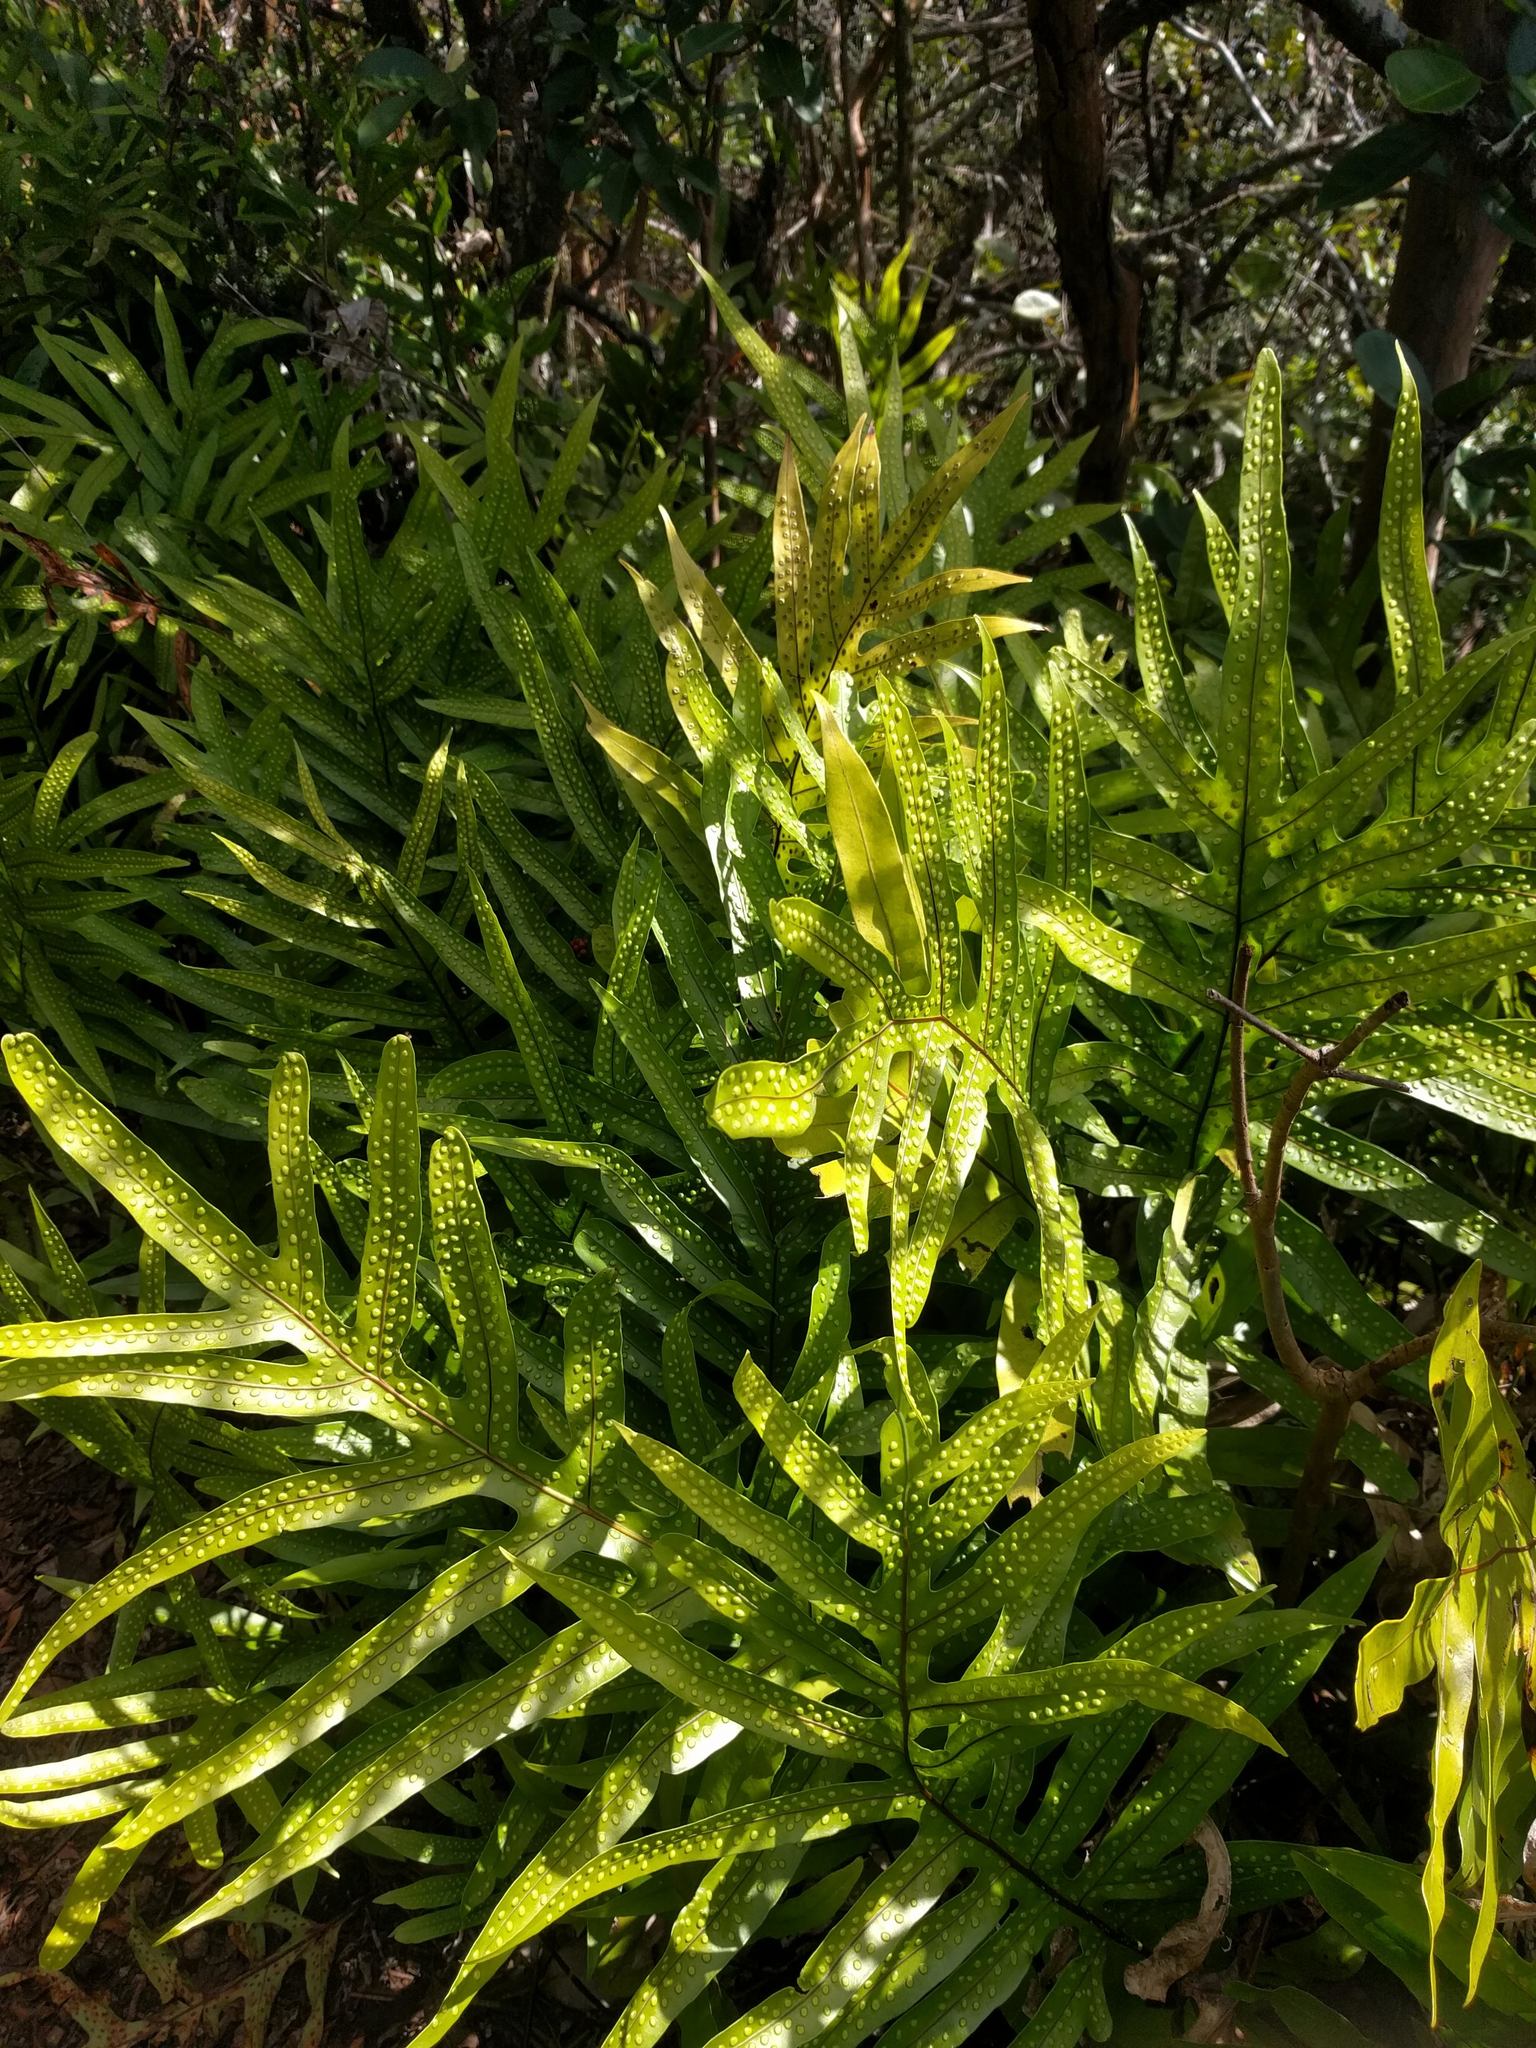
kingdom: Plantae
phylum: Tracheophyta
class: Polypodiopsida
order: Polypodiales
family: Polypodiaceae
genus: Microsorum
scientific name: Microsorum grossum
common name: Musk fern
